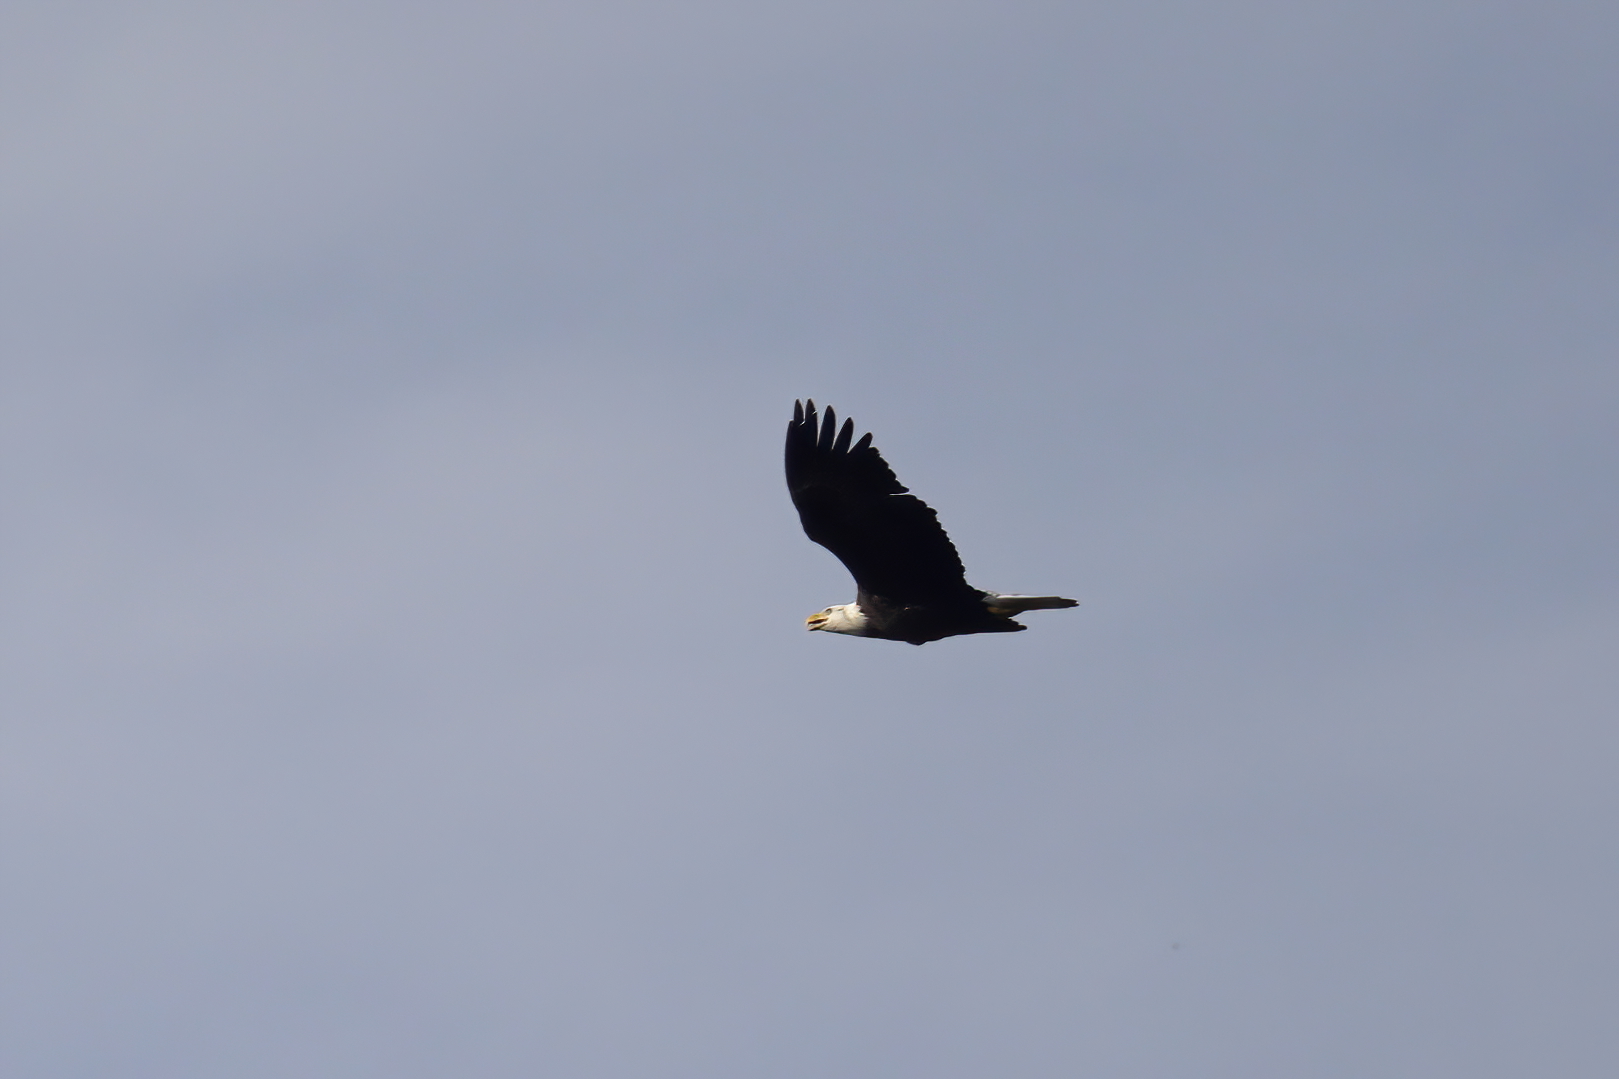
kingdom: Animalia
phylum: Chordata
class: Aves
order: Accipitriformes
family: Accipitridae
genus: Haliaeetus
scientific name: Haliaeetus leucocephalus
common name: Bald eagle
